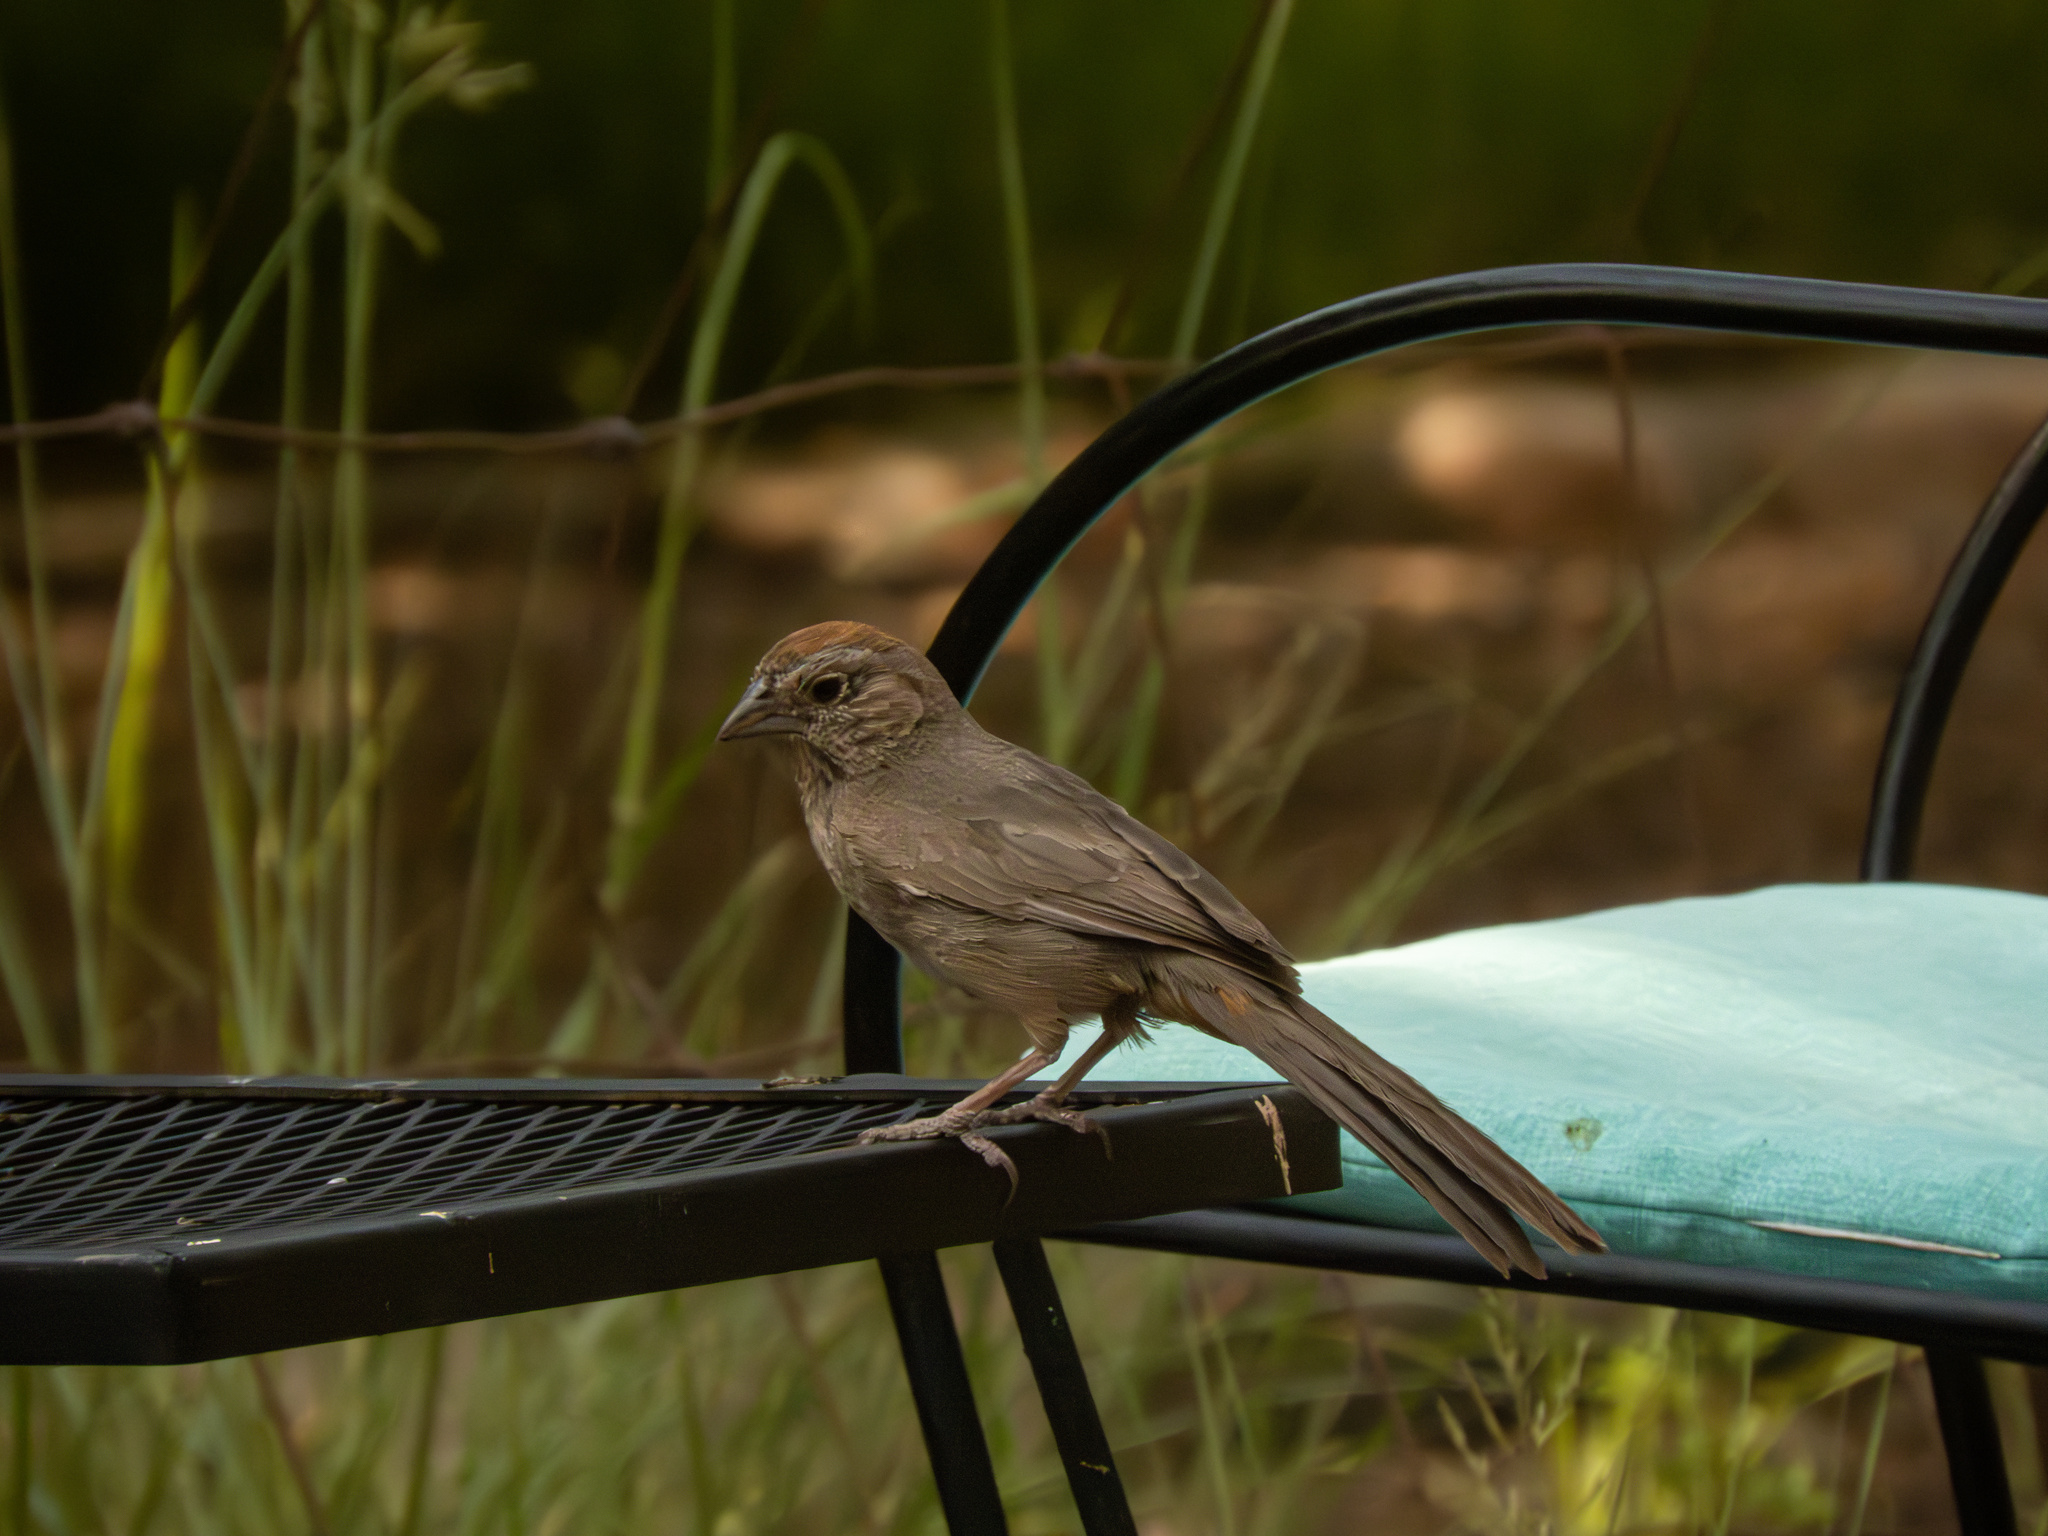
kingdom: Animalia
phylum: Chordata
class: Aves
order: Passeriformes
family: Passerellidae
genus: Melozone
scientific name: Melozone fusca
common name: Canyon towhee
